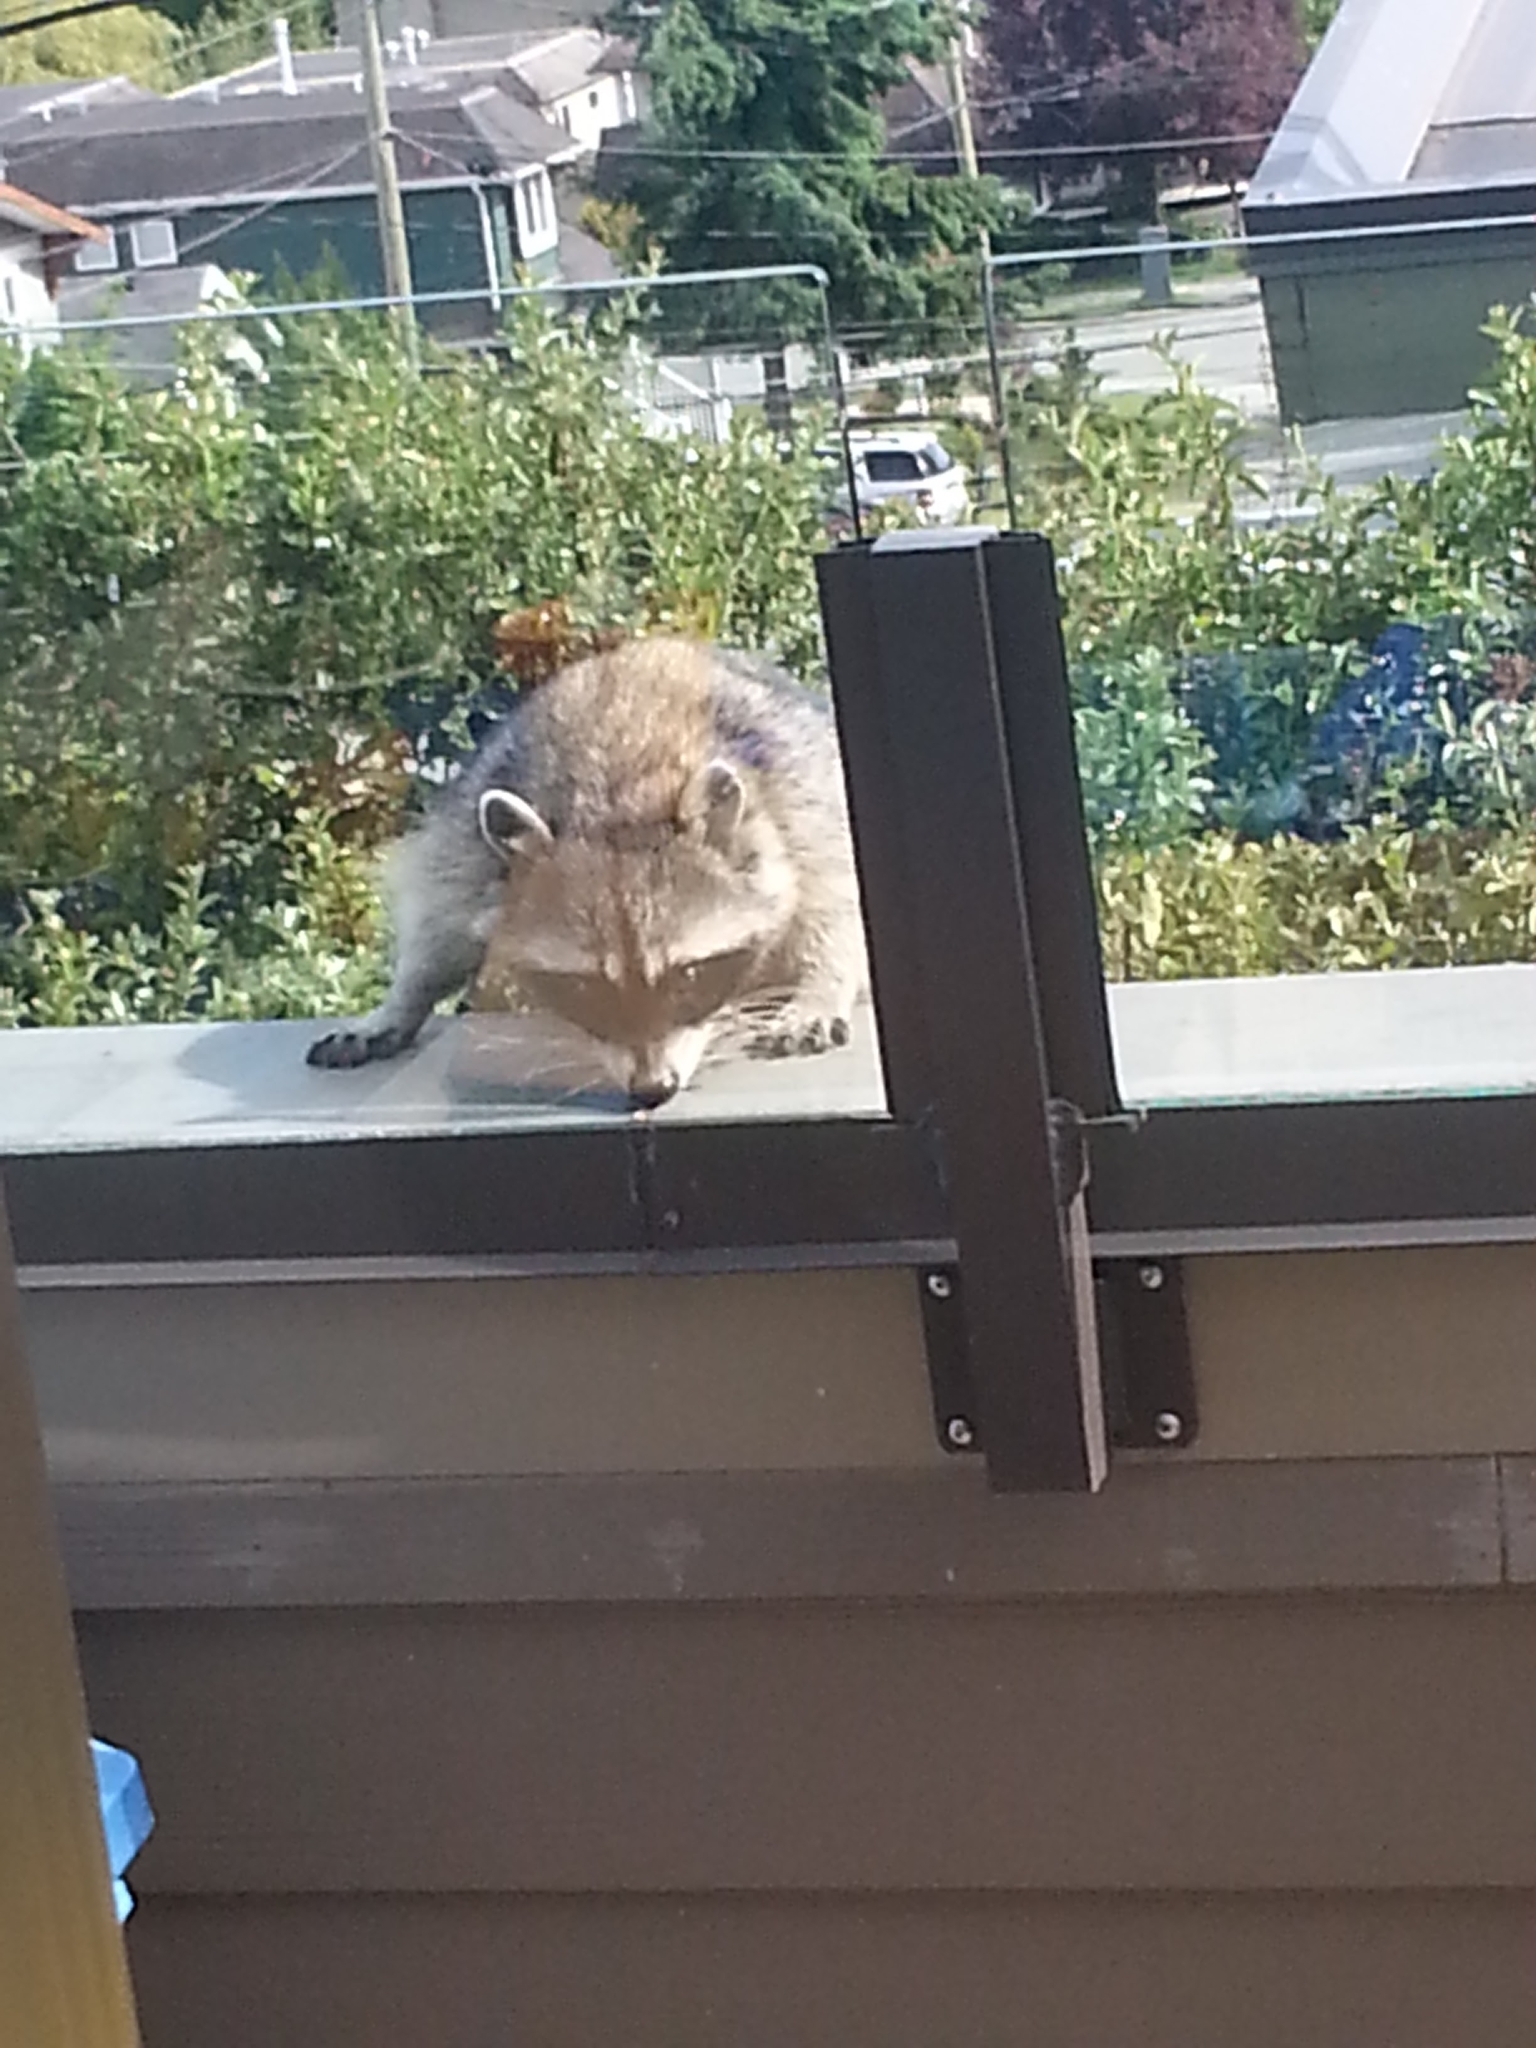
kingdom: Animalia
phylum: Chordata
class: Mammalia
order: Carnivora
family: Procyonidae
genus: Procyon
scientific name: Procyon lotor
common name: Raccoon
